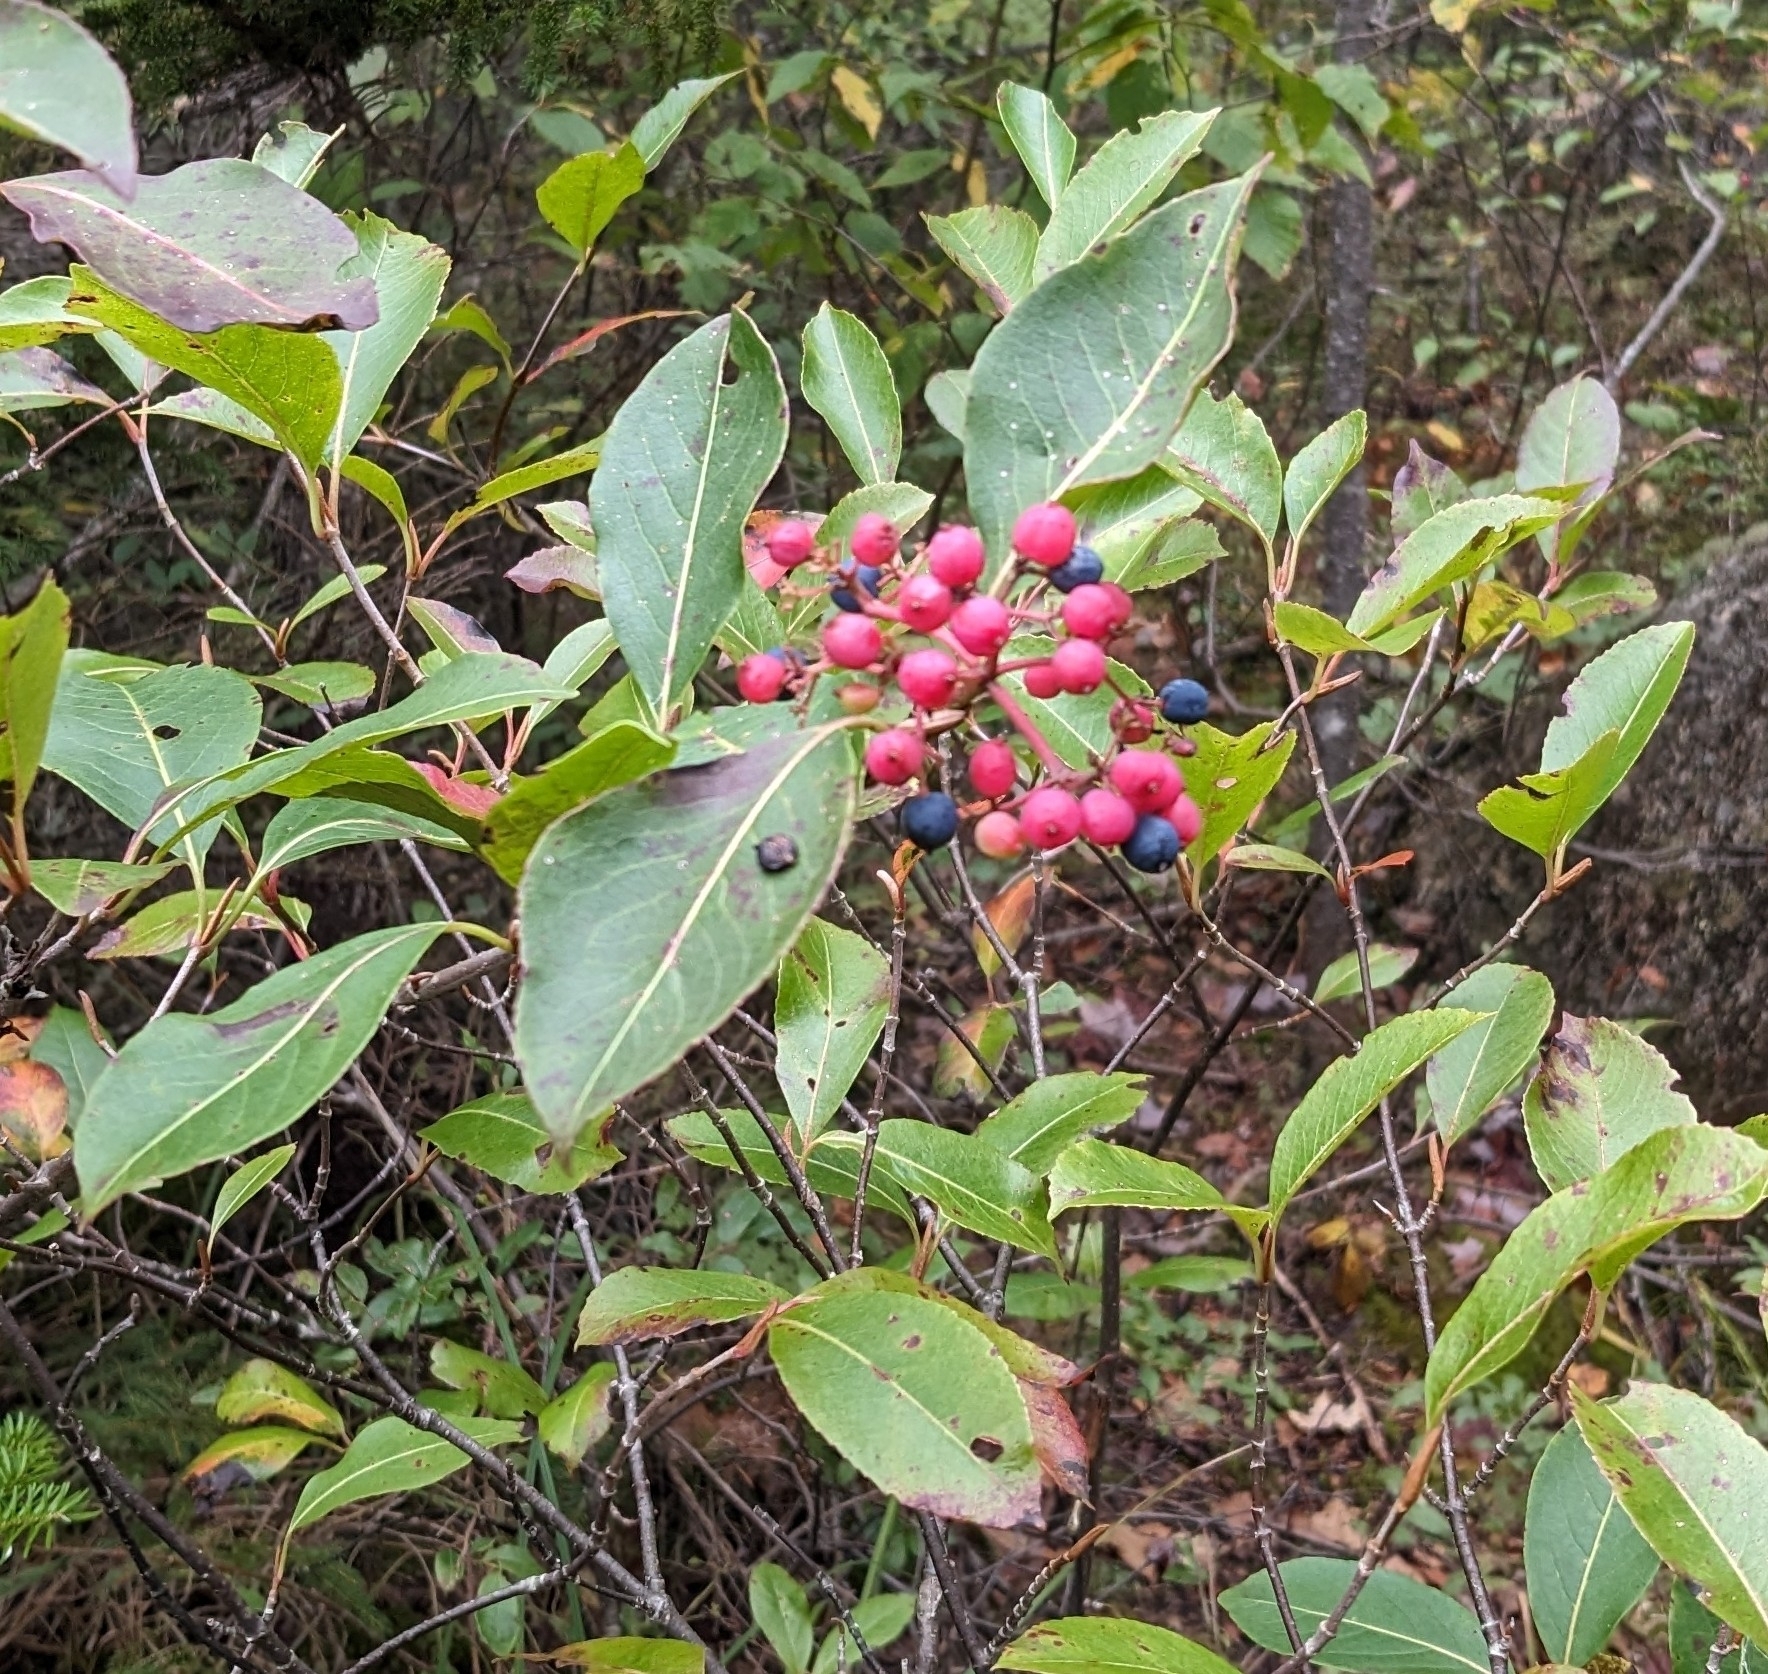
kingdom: Plantae
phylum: Tracheophyta
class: Magnoliopsida
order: Dipsacales
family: Viburnaceae
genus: Viburnum
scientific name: Viburnum cassinoides
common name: Swamp haw
